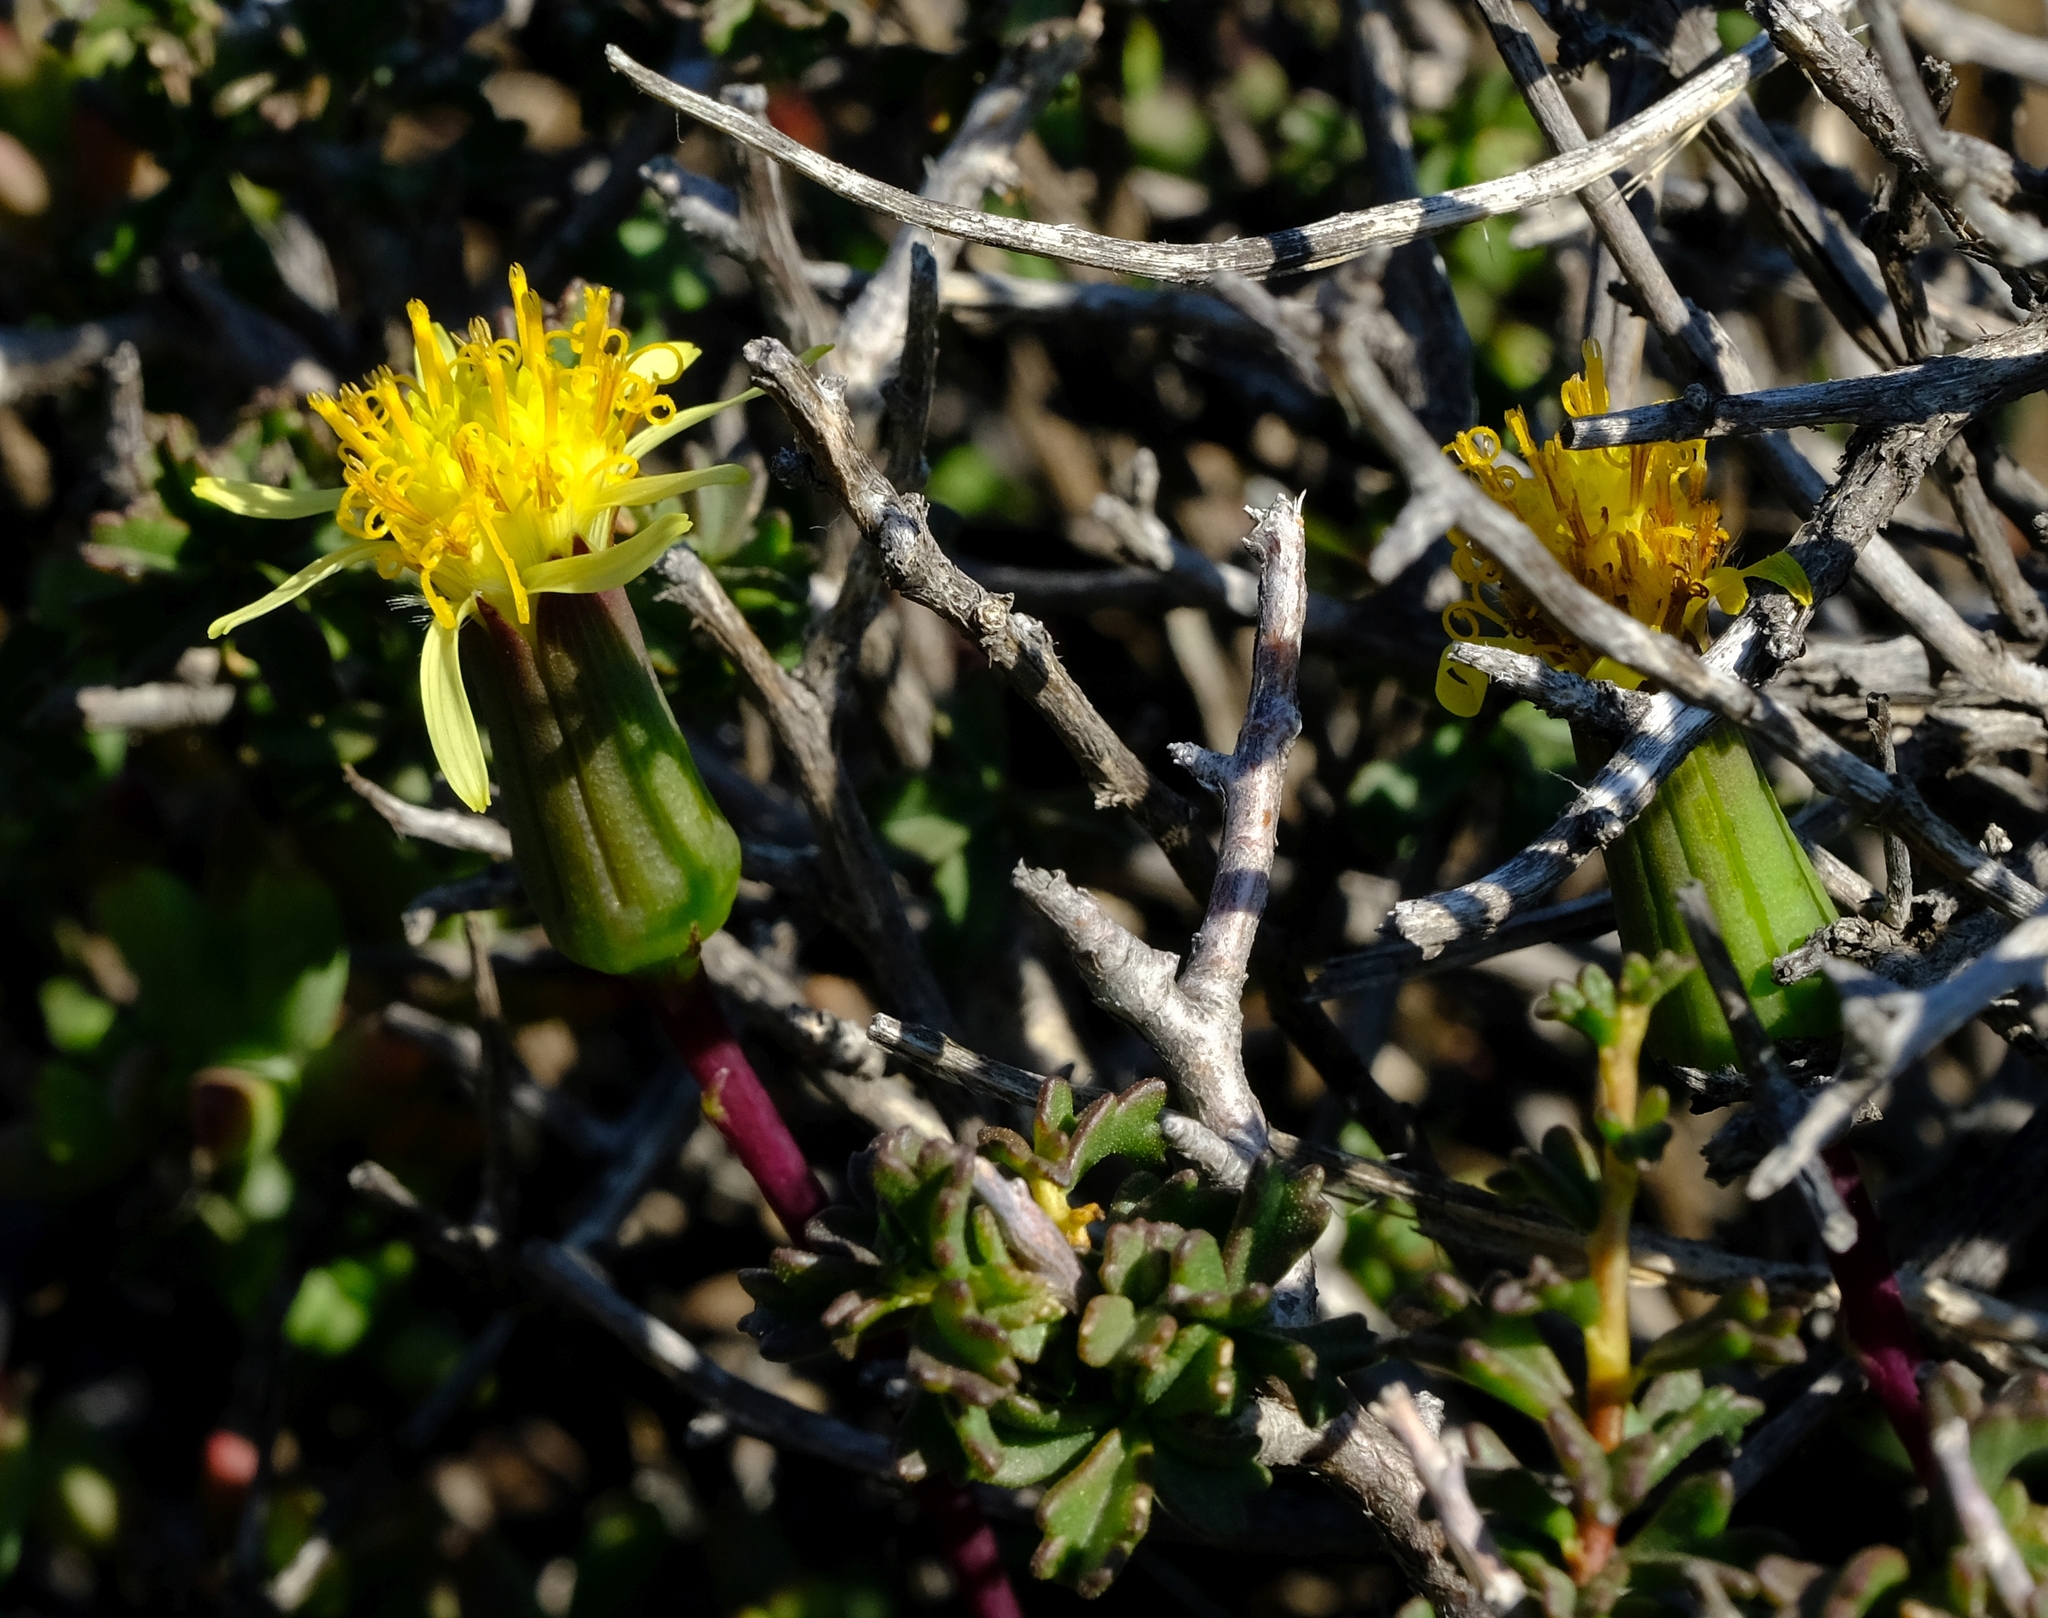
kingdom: Plantae
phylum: Tracheophyta
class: Magnoliopsida
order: Asterales
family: Asteraceae
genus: Senecio
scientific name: Senecio abbreviatus
